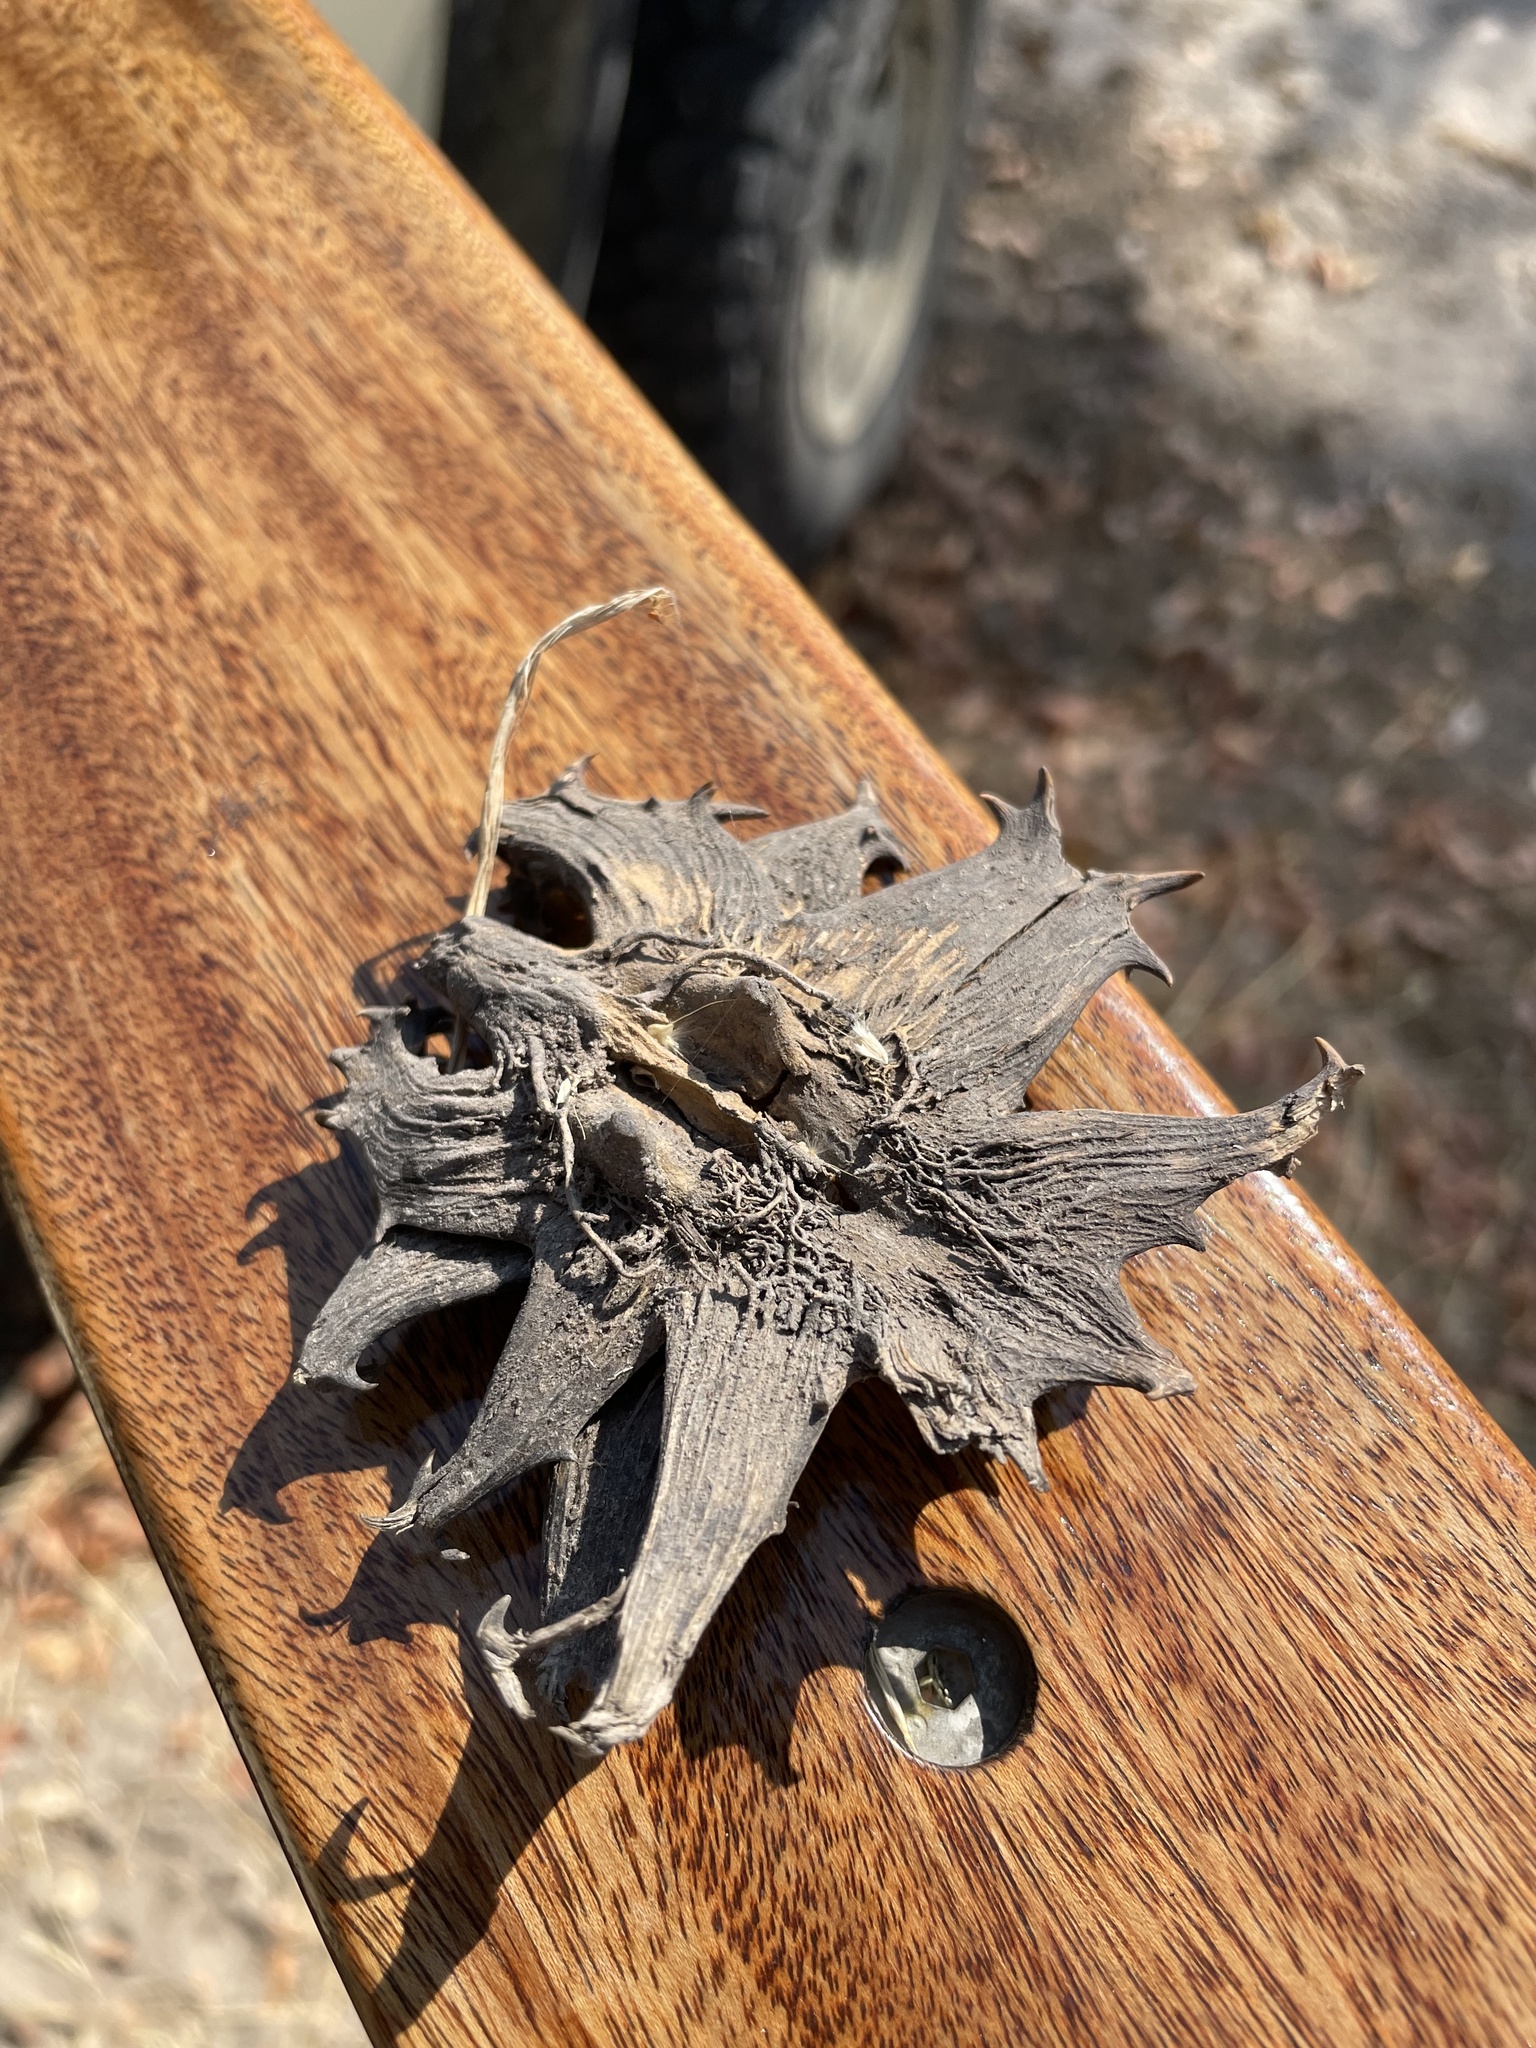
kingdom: Plantae
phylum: Tracheophyta
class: Magnoliopsida
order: Lamiales
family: Pedaliaceae
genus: Harpagophytum
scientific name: Harpagophytum zeyheri
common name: Grappleplant
